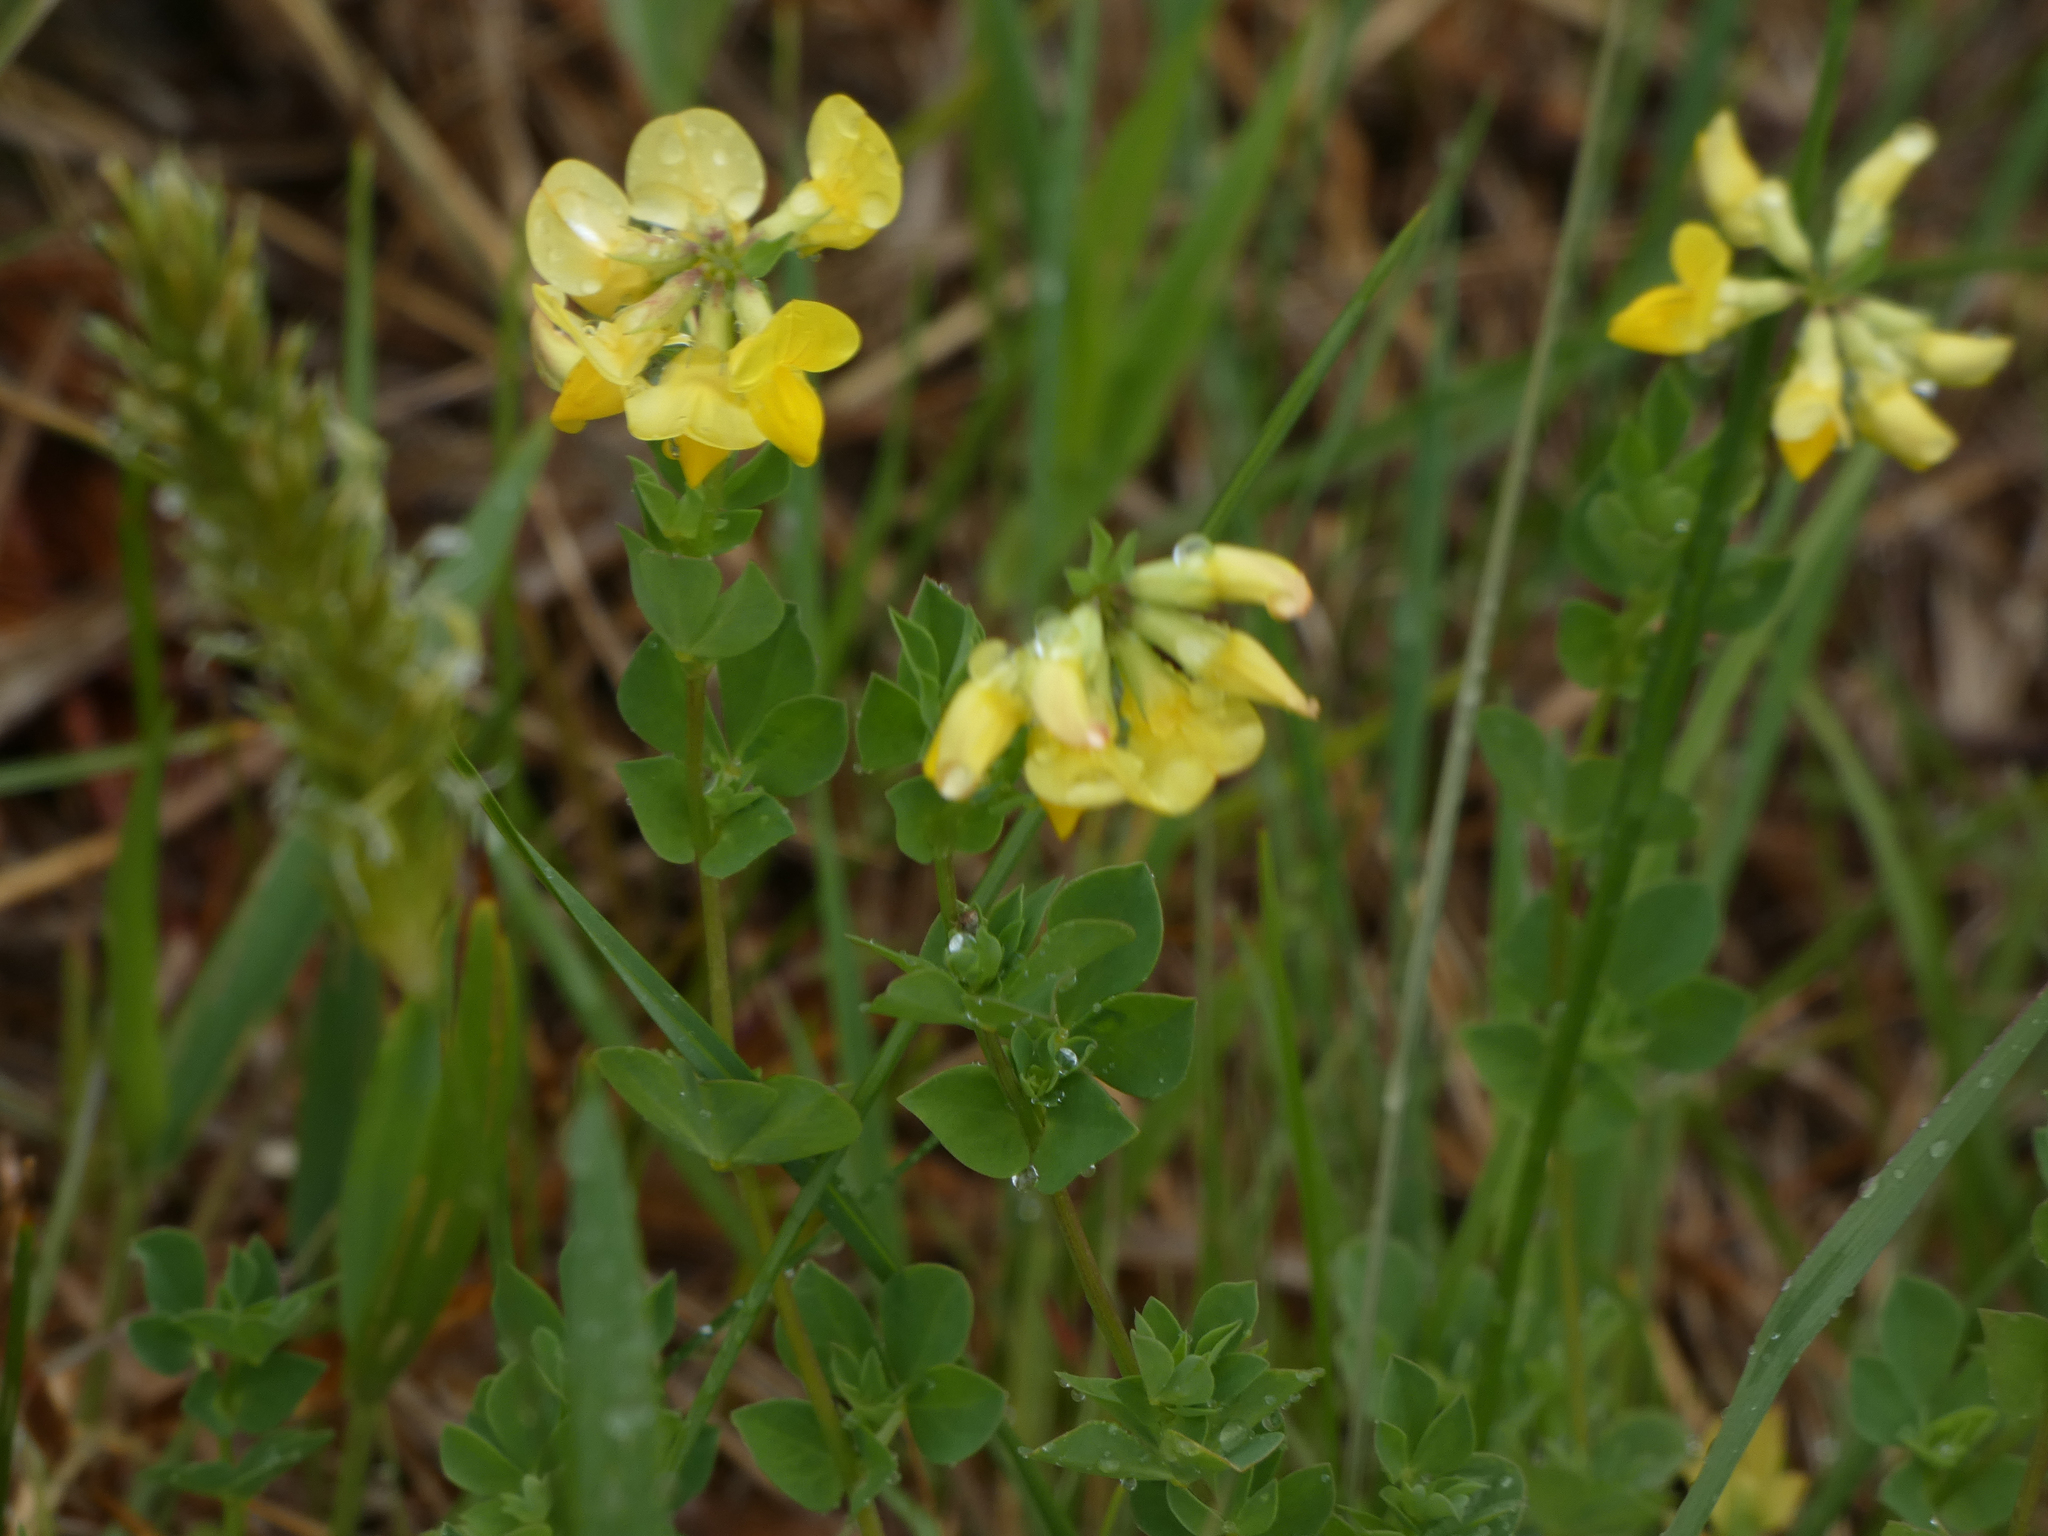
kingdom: Plantae
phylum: Tracheophyta
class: Magnoliopsida
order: Fabales
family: Fabaceae
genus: Lotus
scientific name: Lotus corniculatus
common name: Common bird's-foot-trefoil
